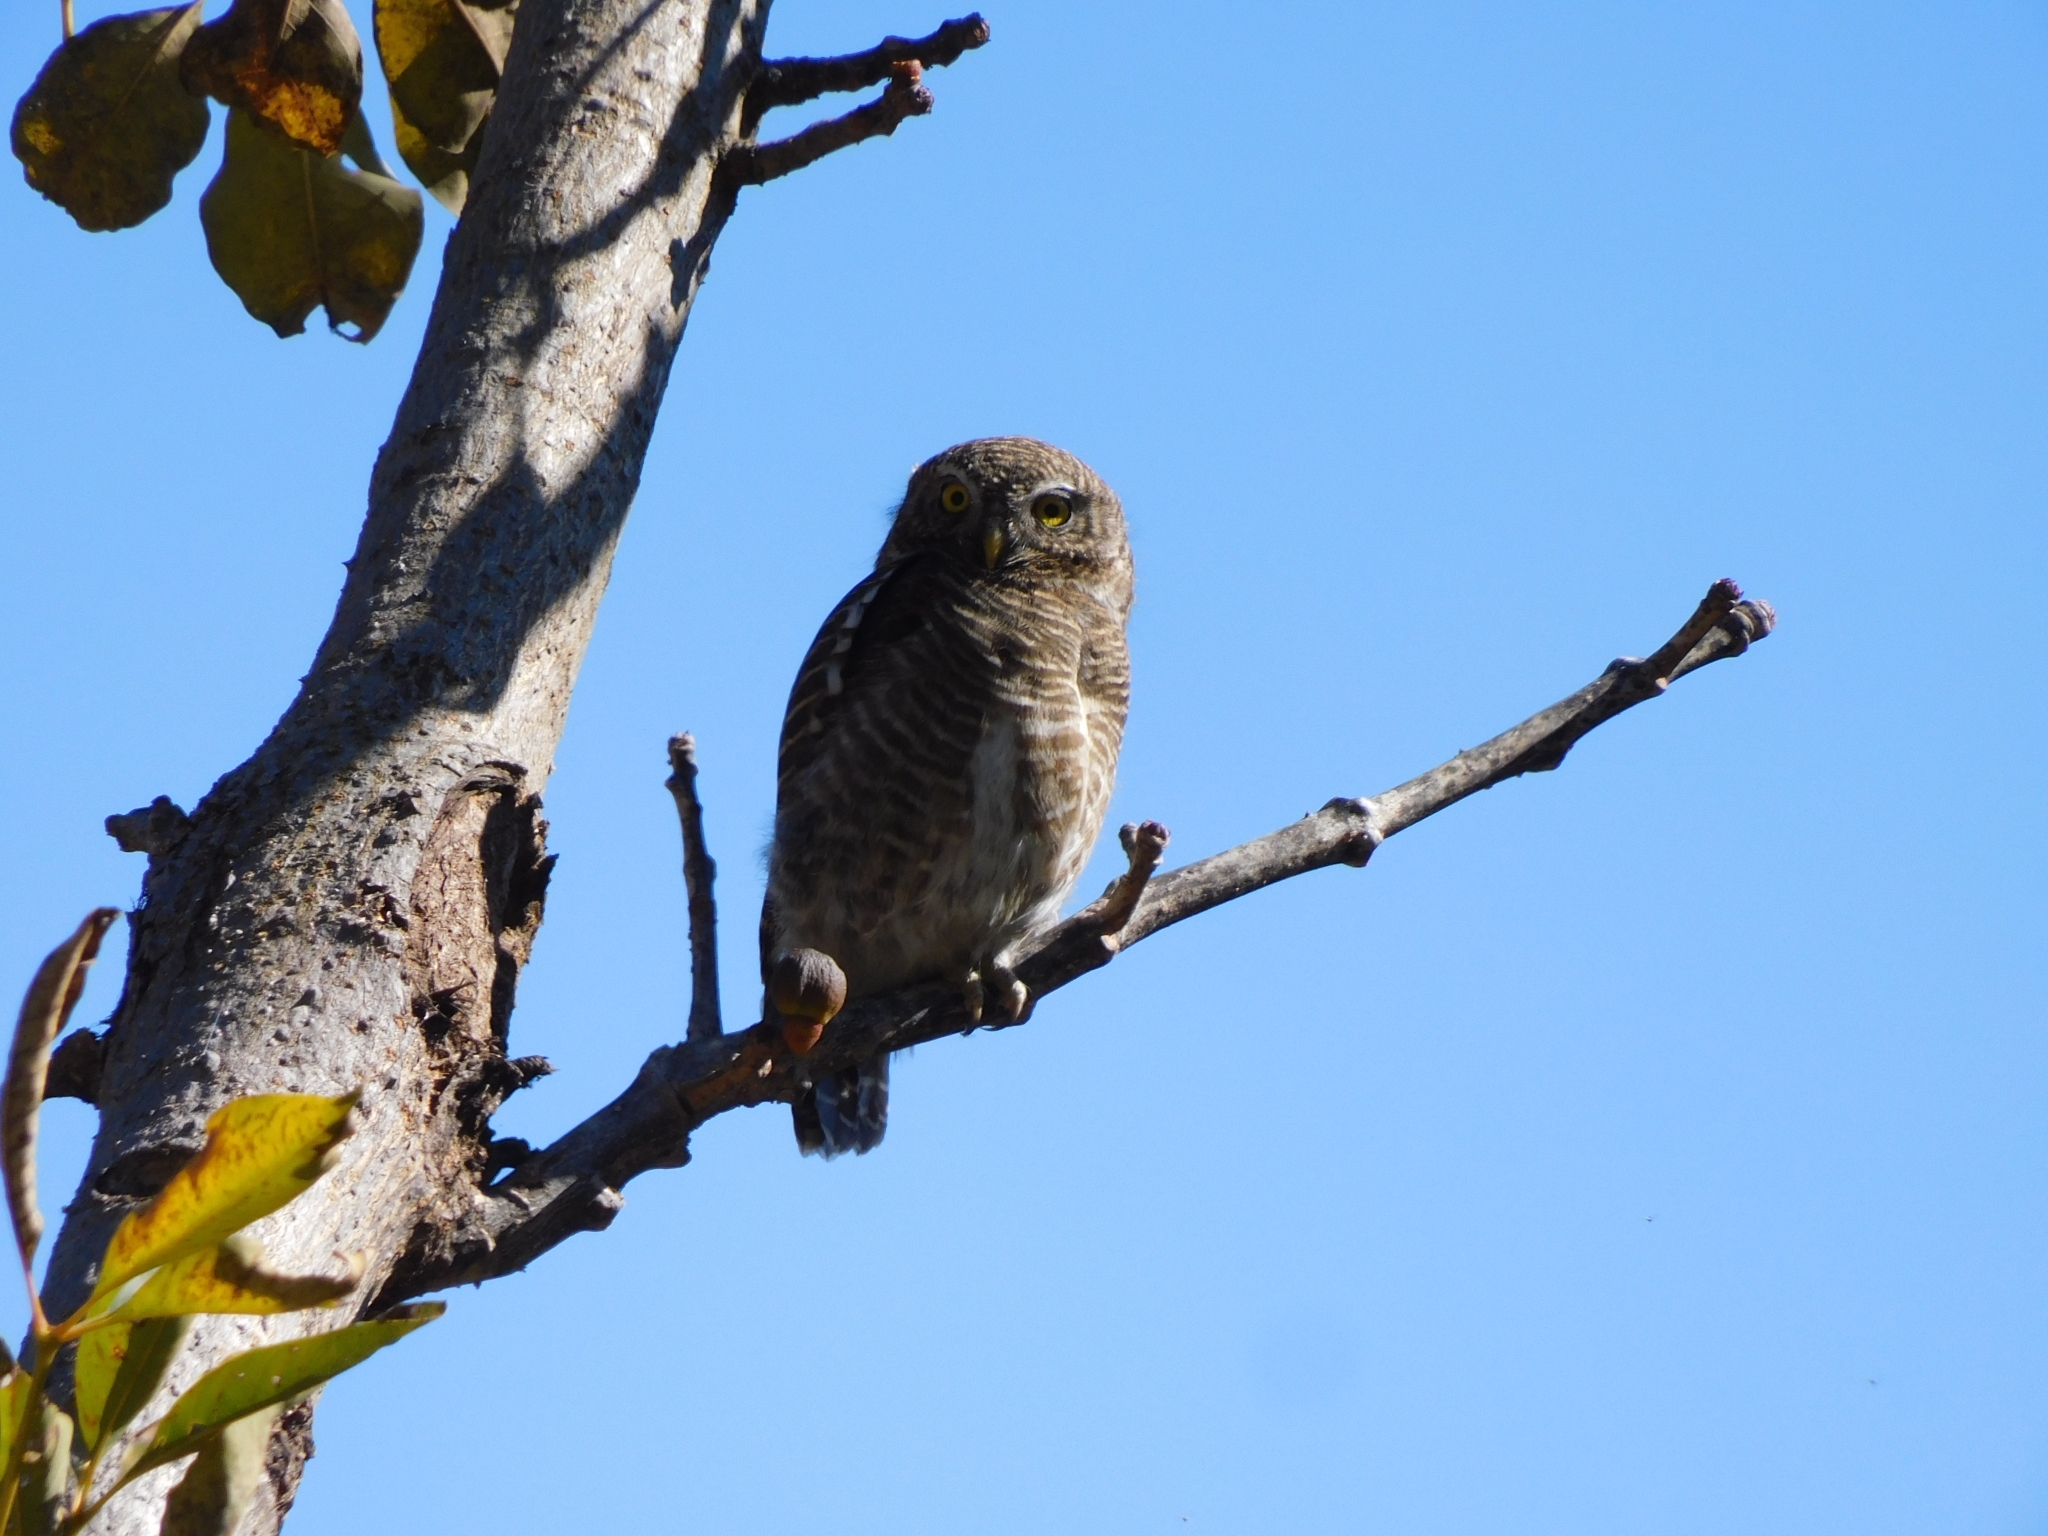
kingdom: Animalia
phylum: Chordata
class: Aves
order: Strigiformes
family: Strigidae
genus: Glaucidium
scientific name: Glaucidium cuculoides
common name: Asian barred owlet
